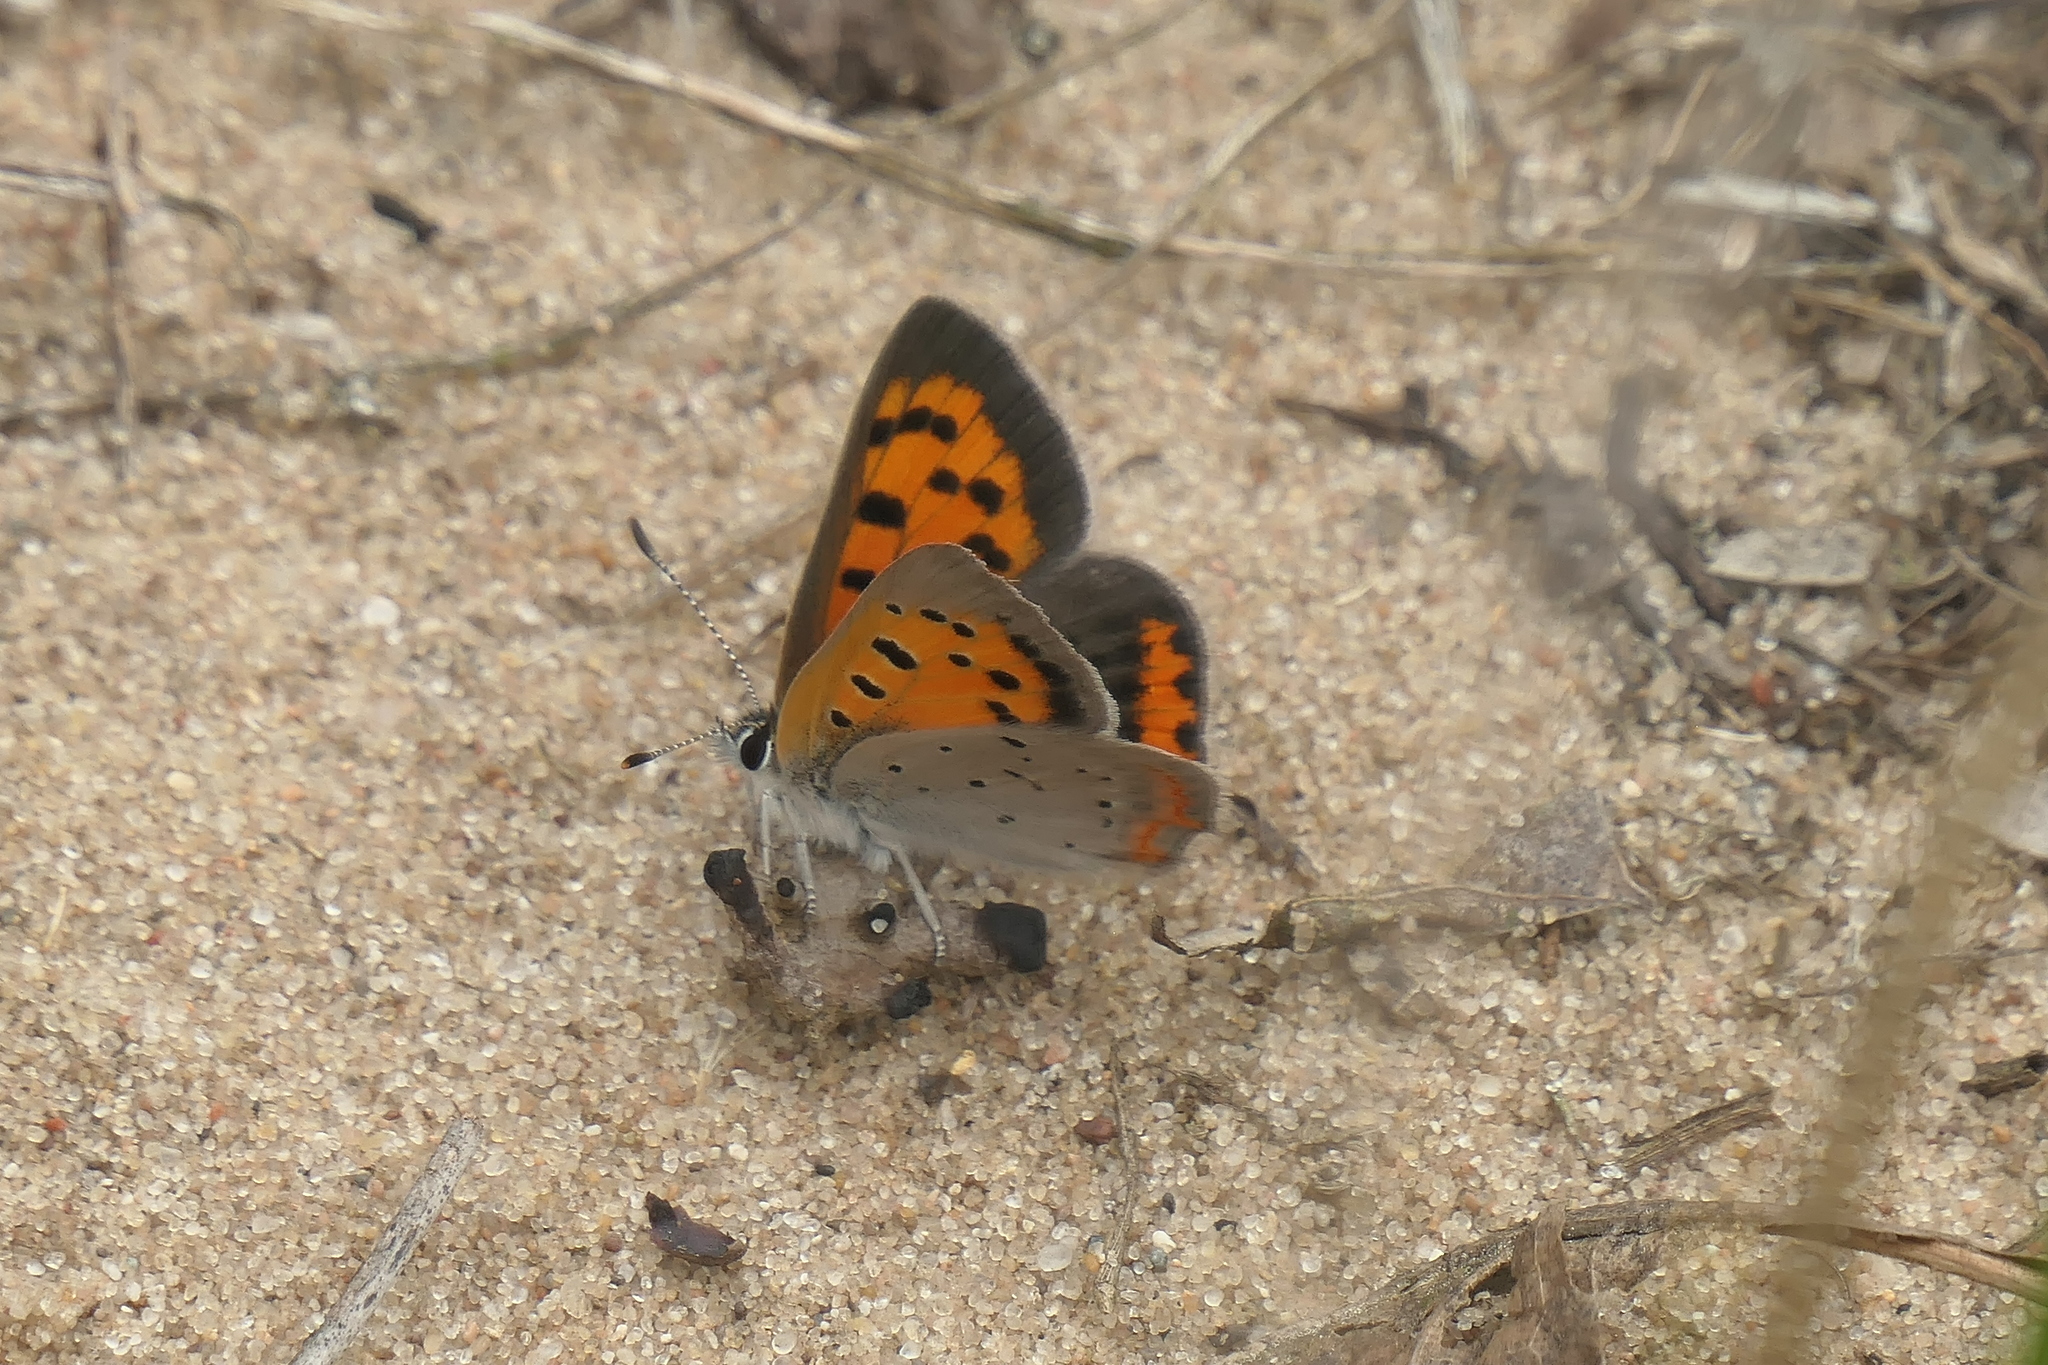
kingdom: Animalia
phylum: Arthropoda
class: Insecta
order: Lepidoptera
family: Lycaenidae
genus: Lycaena
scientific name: Lycaena hypophlaeas
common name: American copper
